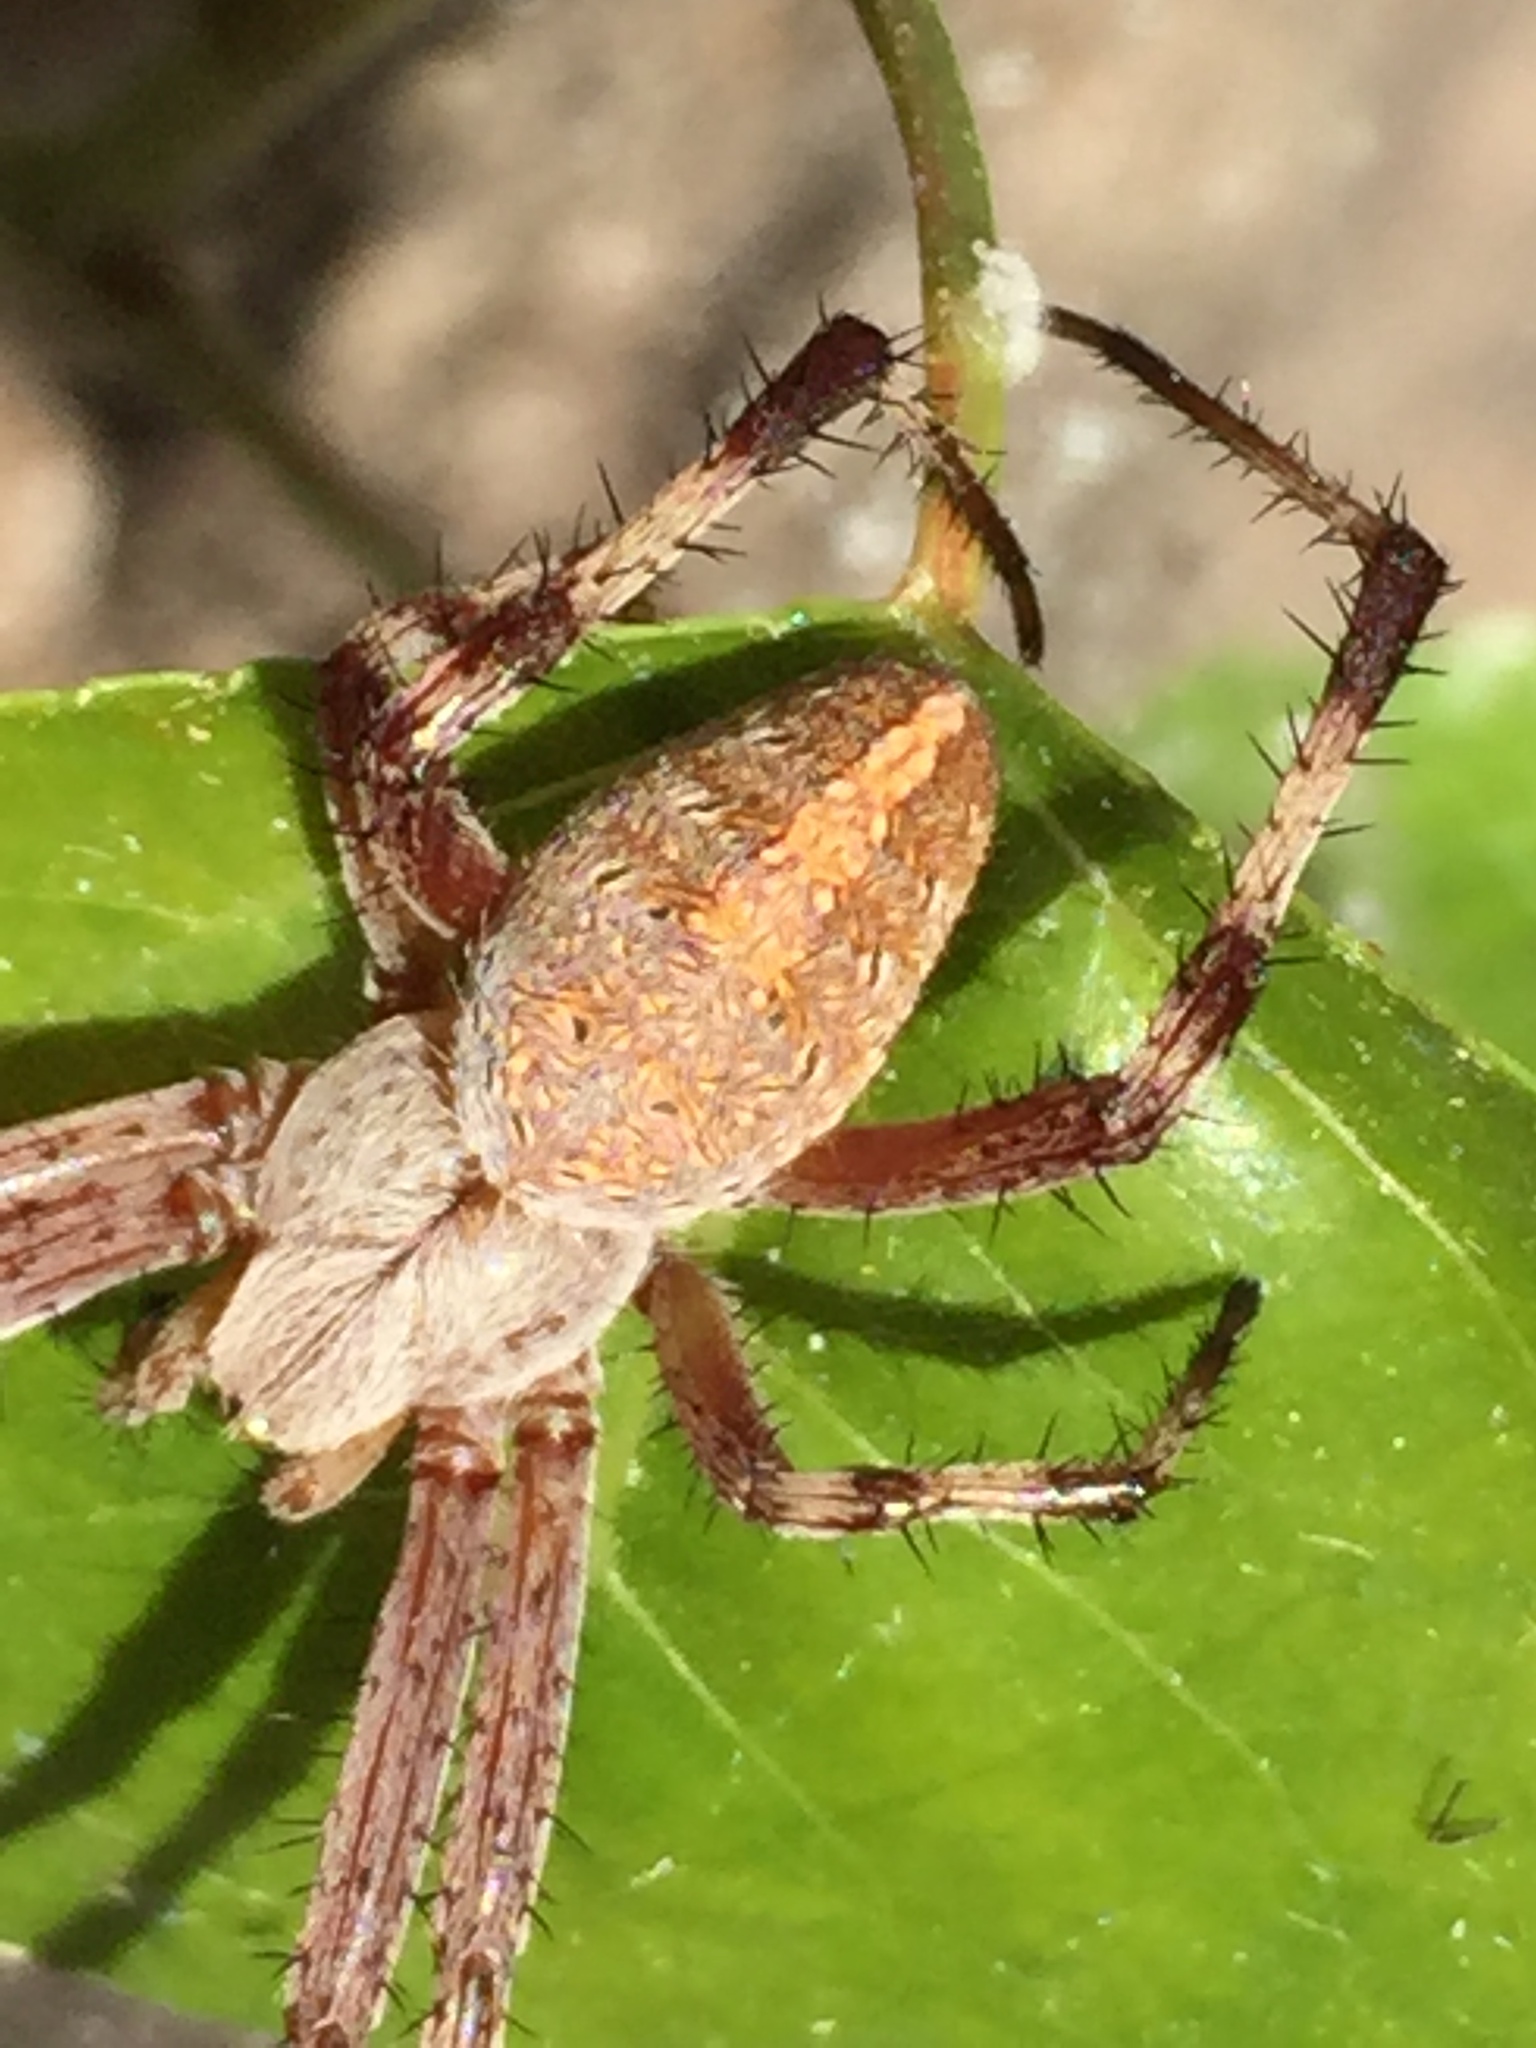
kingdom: Animalia
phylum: Arthropoda
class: Arachnida
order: Araneae
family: Araneidae
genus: Neoscona
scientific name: Neoscona oaxacensis
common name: Orb weavers
